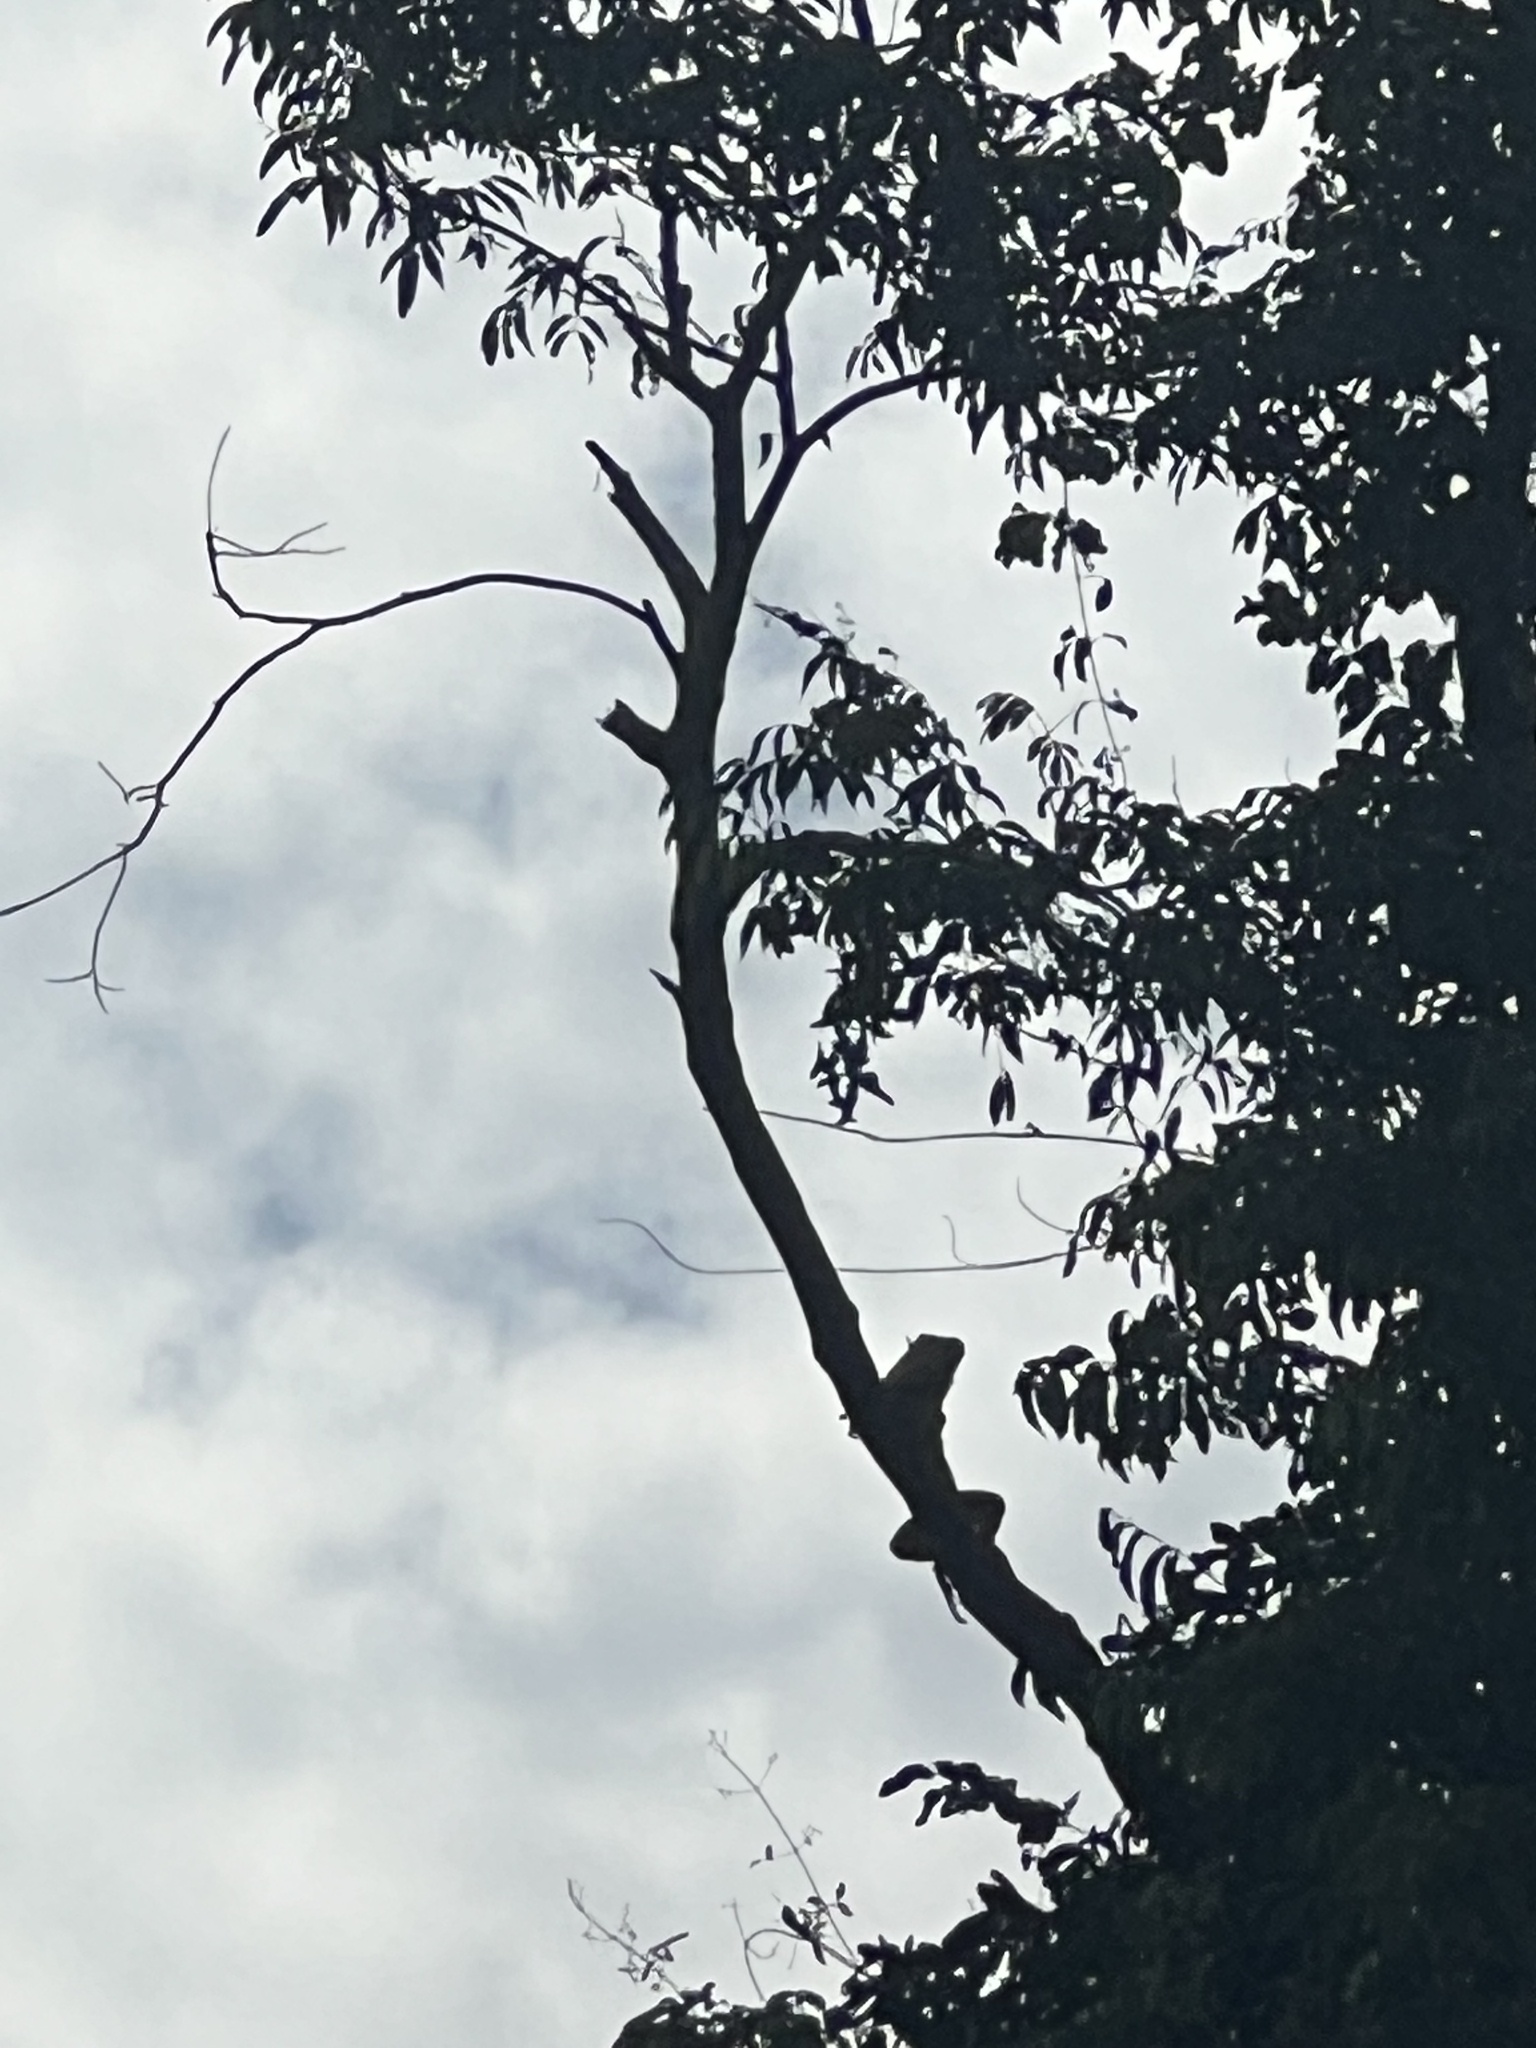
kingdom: Animalia
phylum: Chordata
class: Squamata
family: Iguanidae
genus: Iguana
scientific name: Iguana iguana
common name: Green iguana
